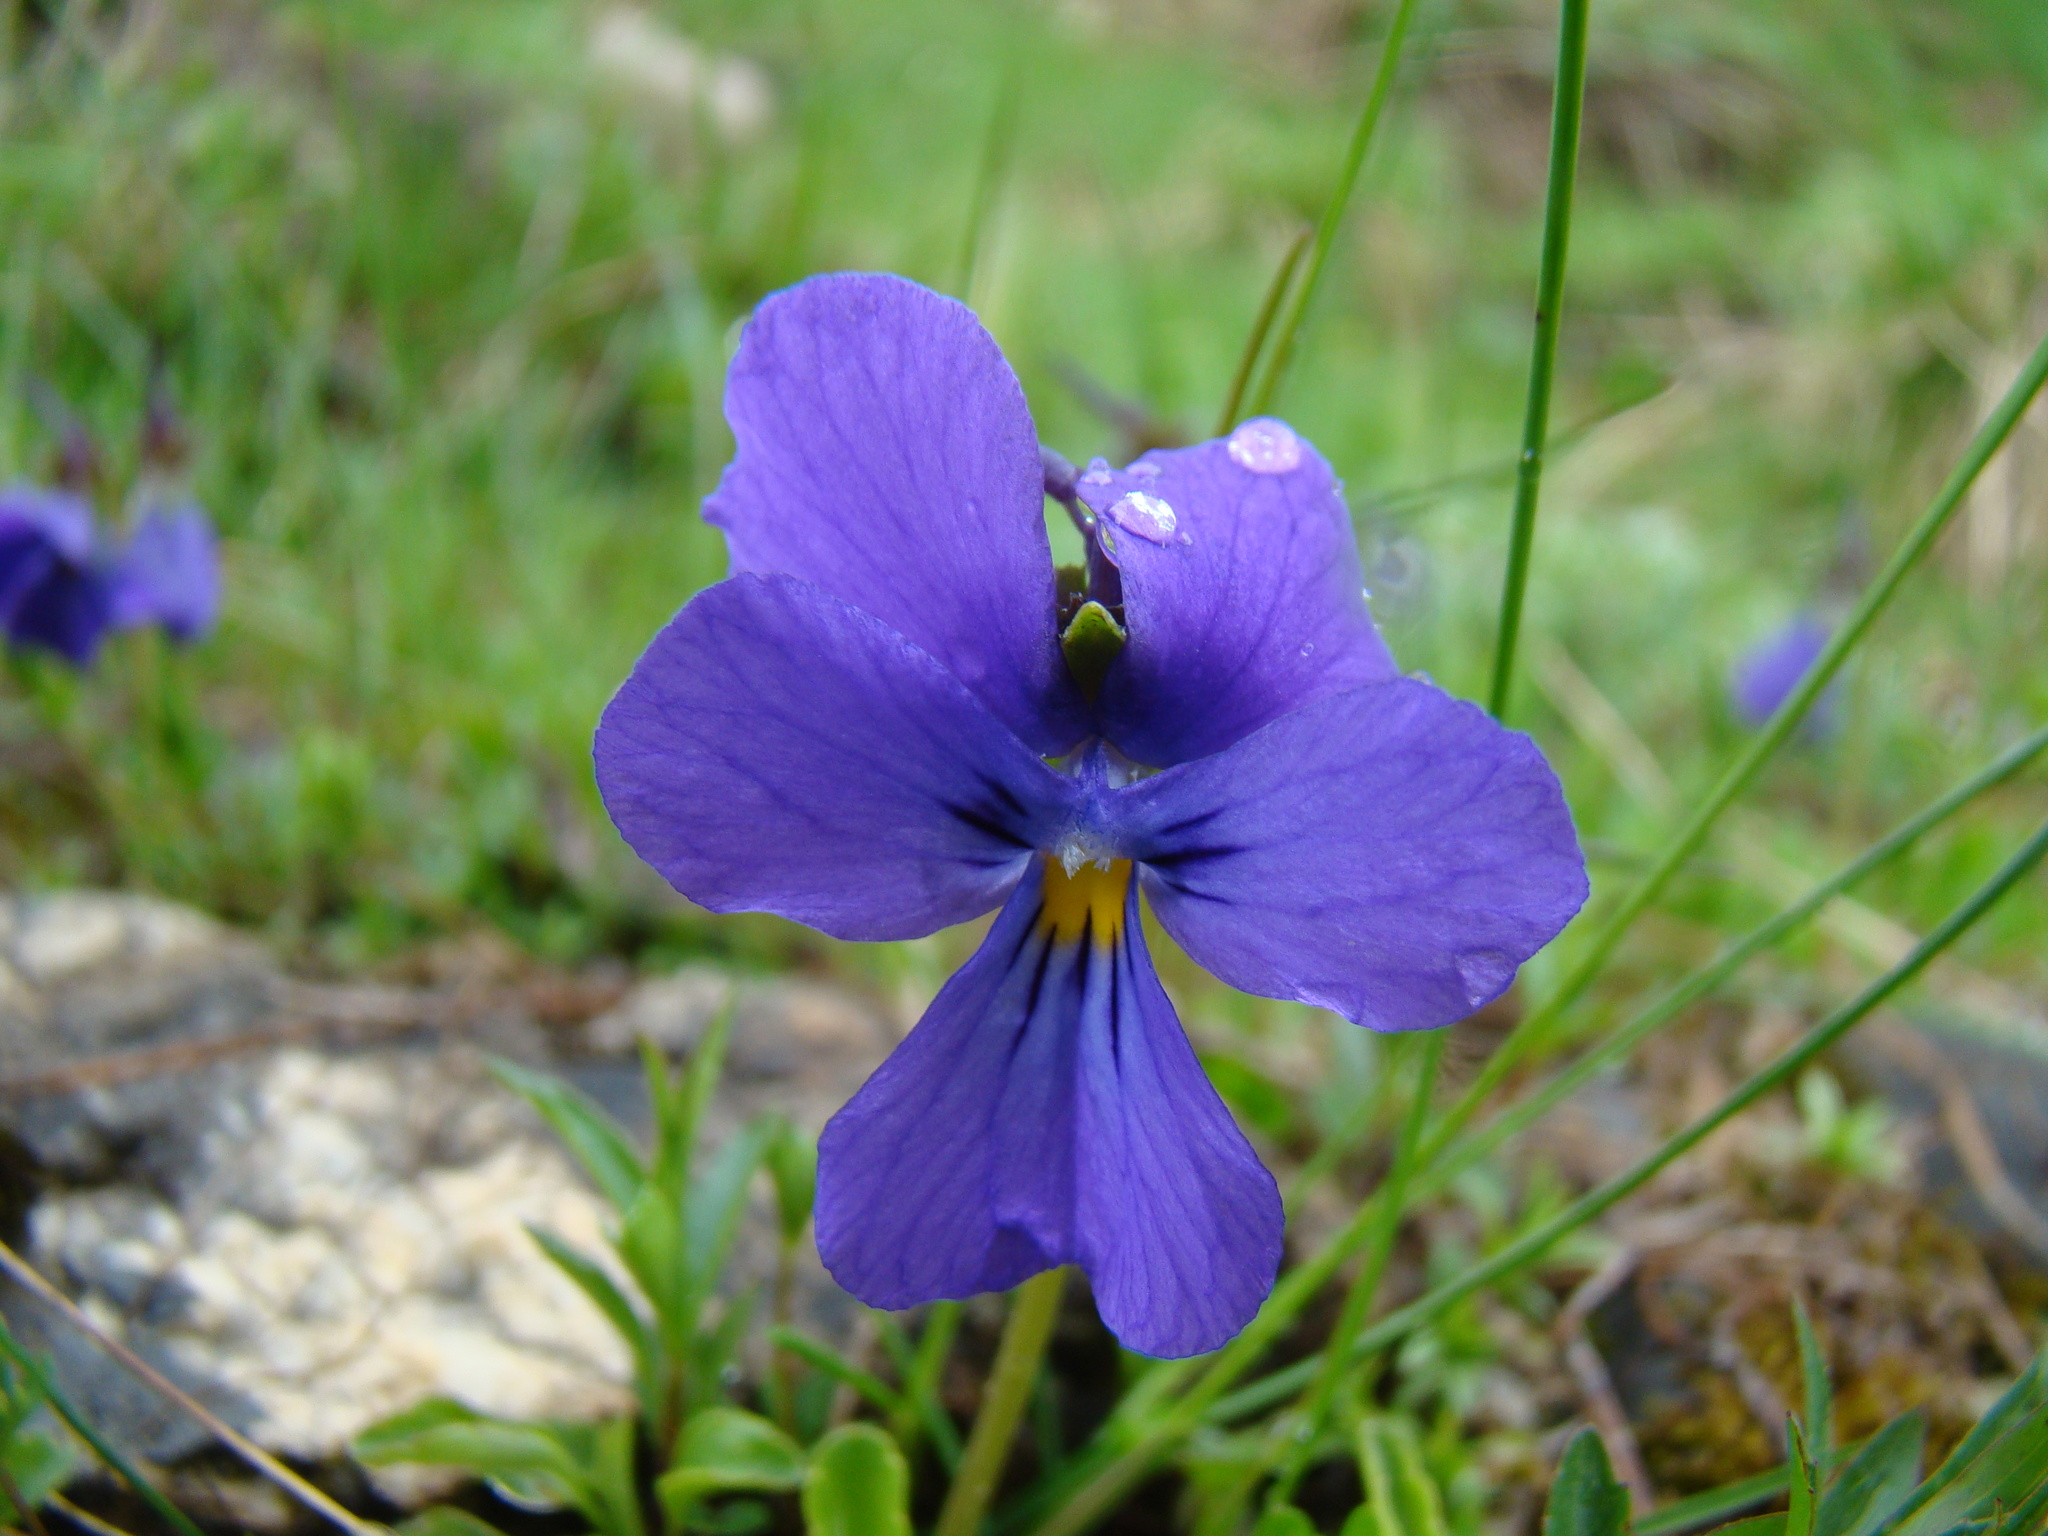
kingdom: Plantae
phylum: Tracheophyta
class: Magnoliopsida
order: Malpighiales
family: Violaceae
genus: Viola
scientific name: Viola calcarata
